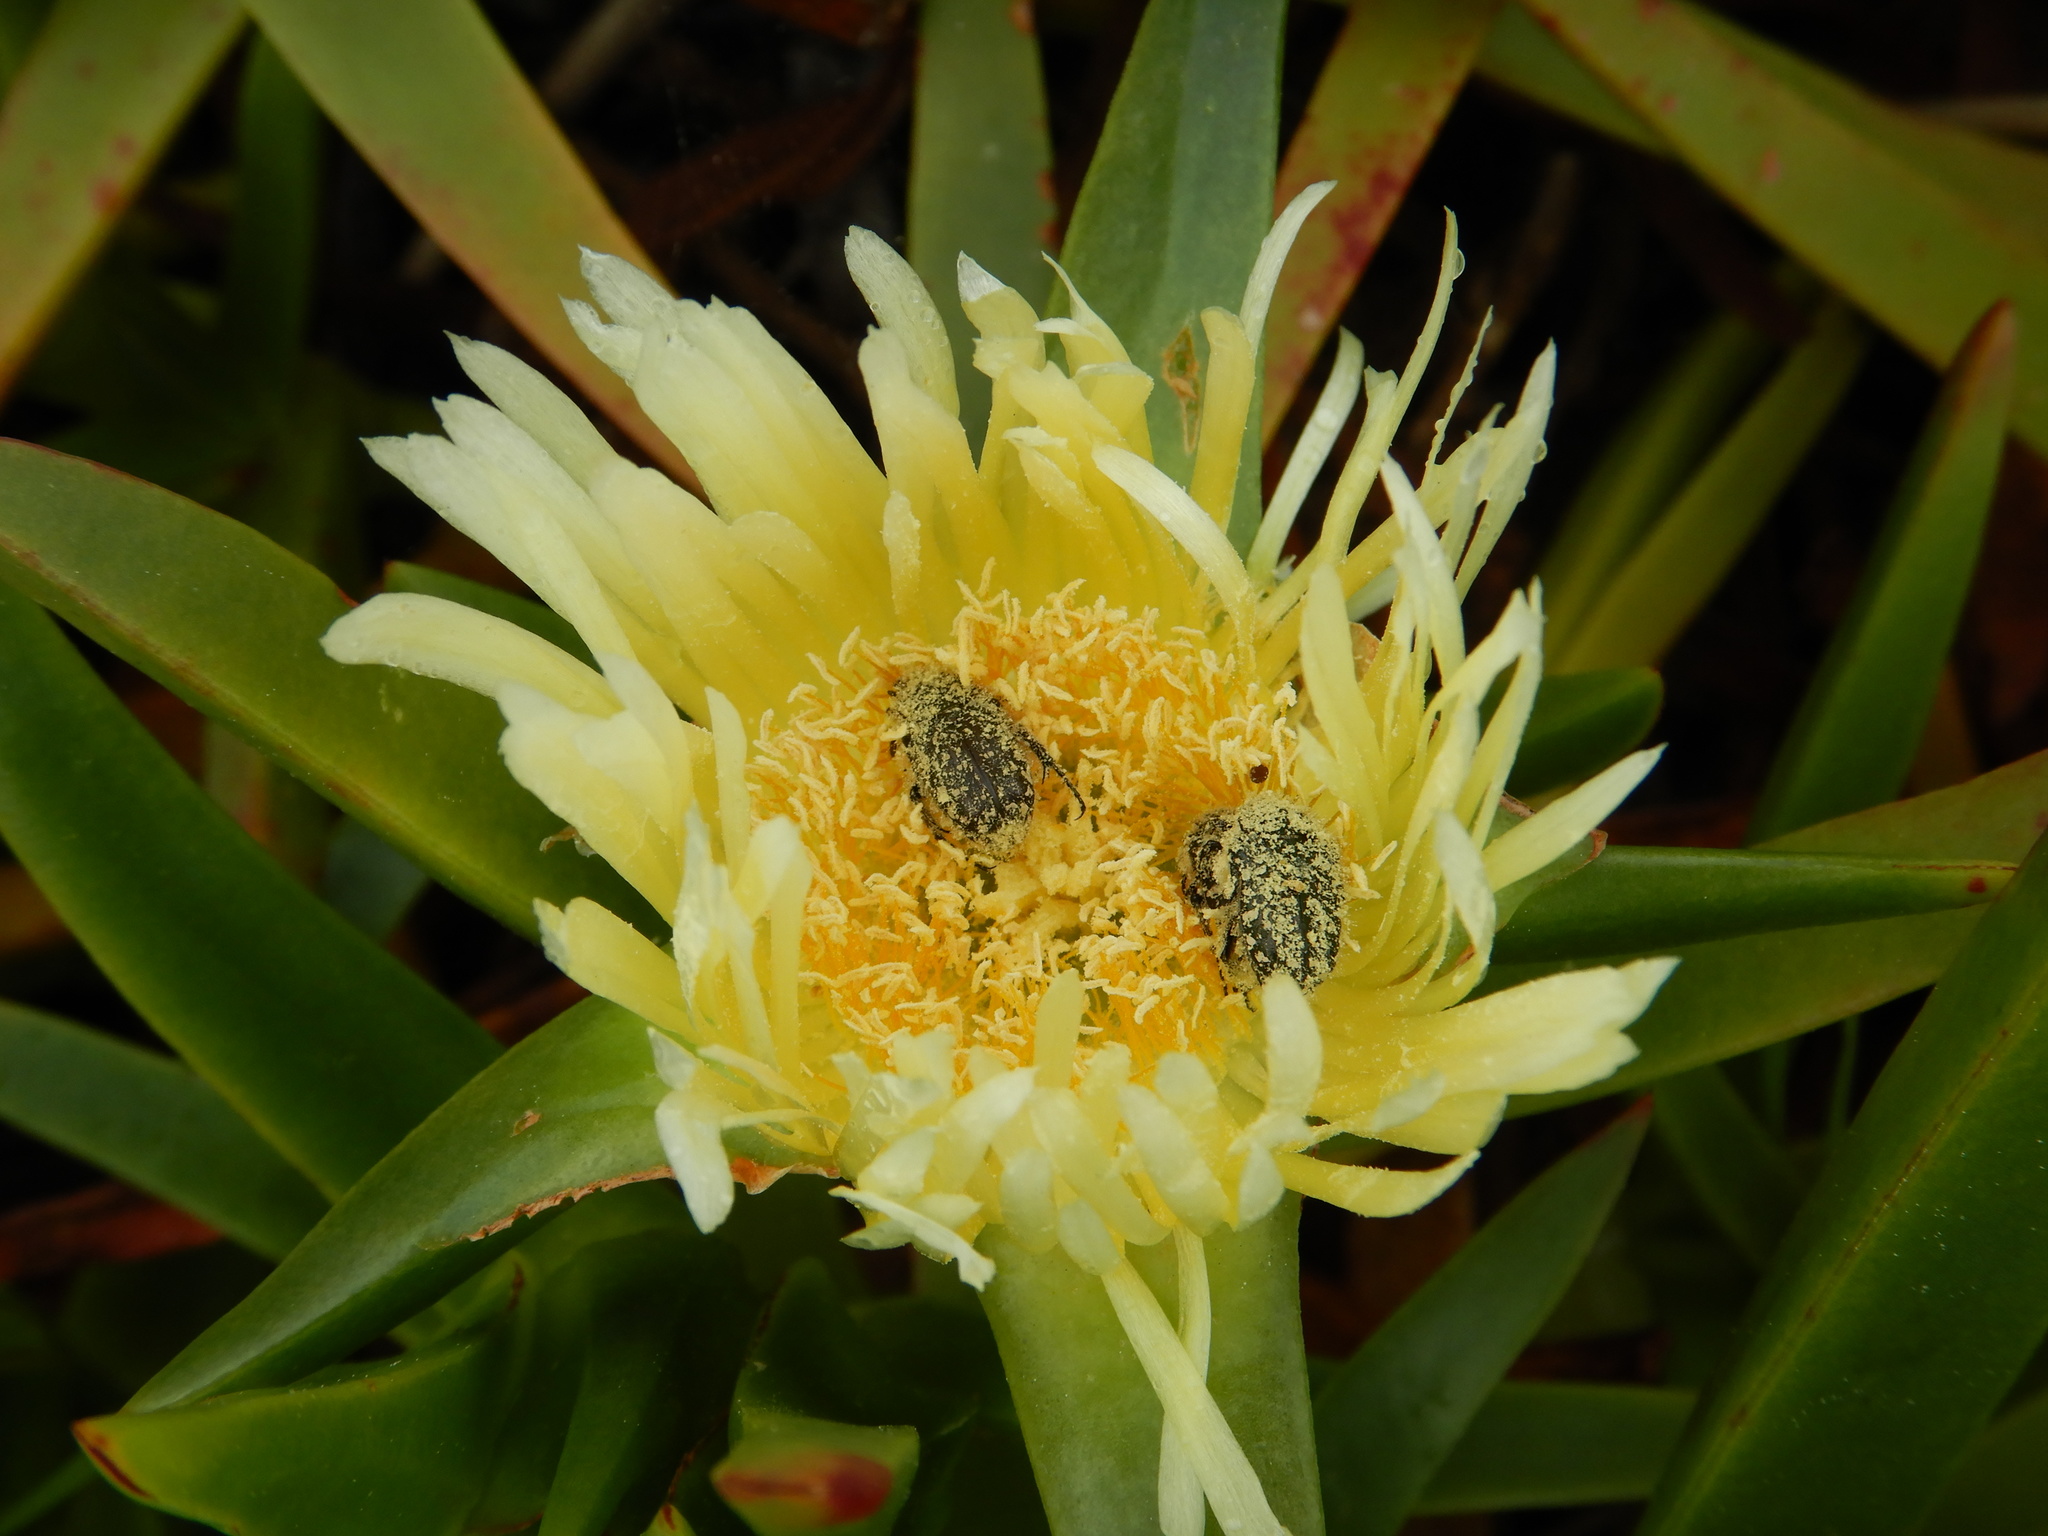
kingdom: Plantae
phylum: Tracheophyta
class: Magnoliopsida
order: Caryophyllales
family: Aizoaceae
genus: Carpobrotus
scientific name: Carpobrotus edulis
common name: Hottentot-fig
